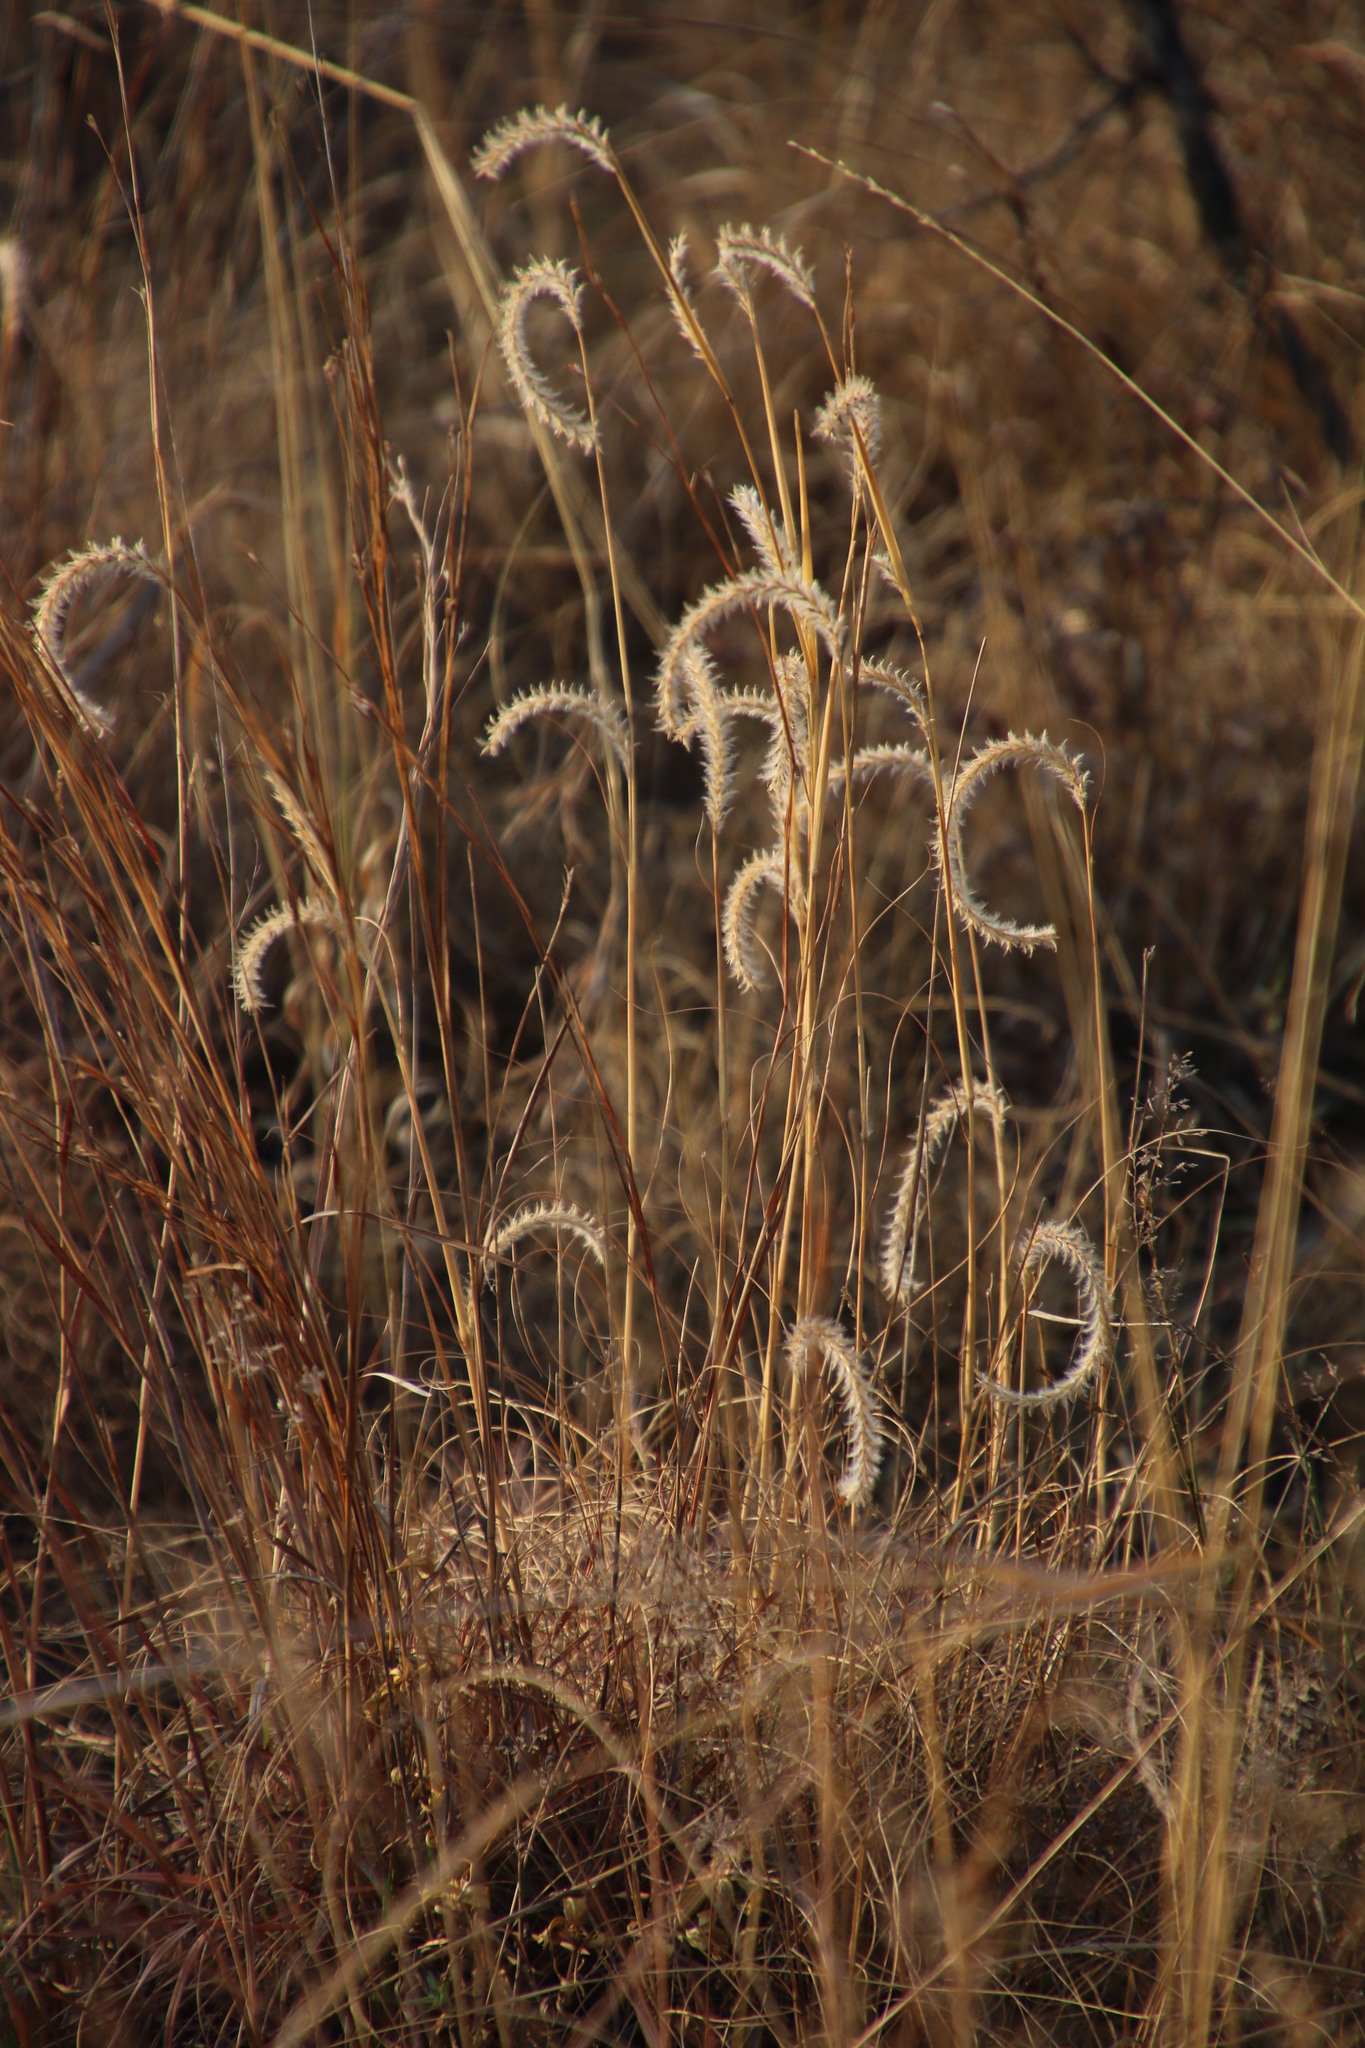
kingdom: Plantae
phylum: Tracheophyta
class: Liliopsida
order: Poales
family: Poaceae
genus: Elionurus
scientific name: Elionurus muticus
